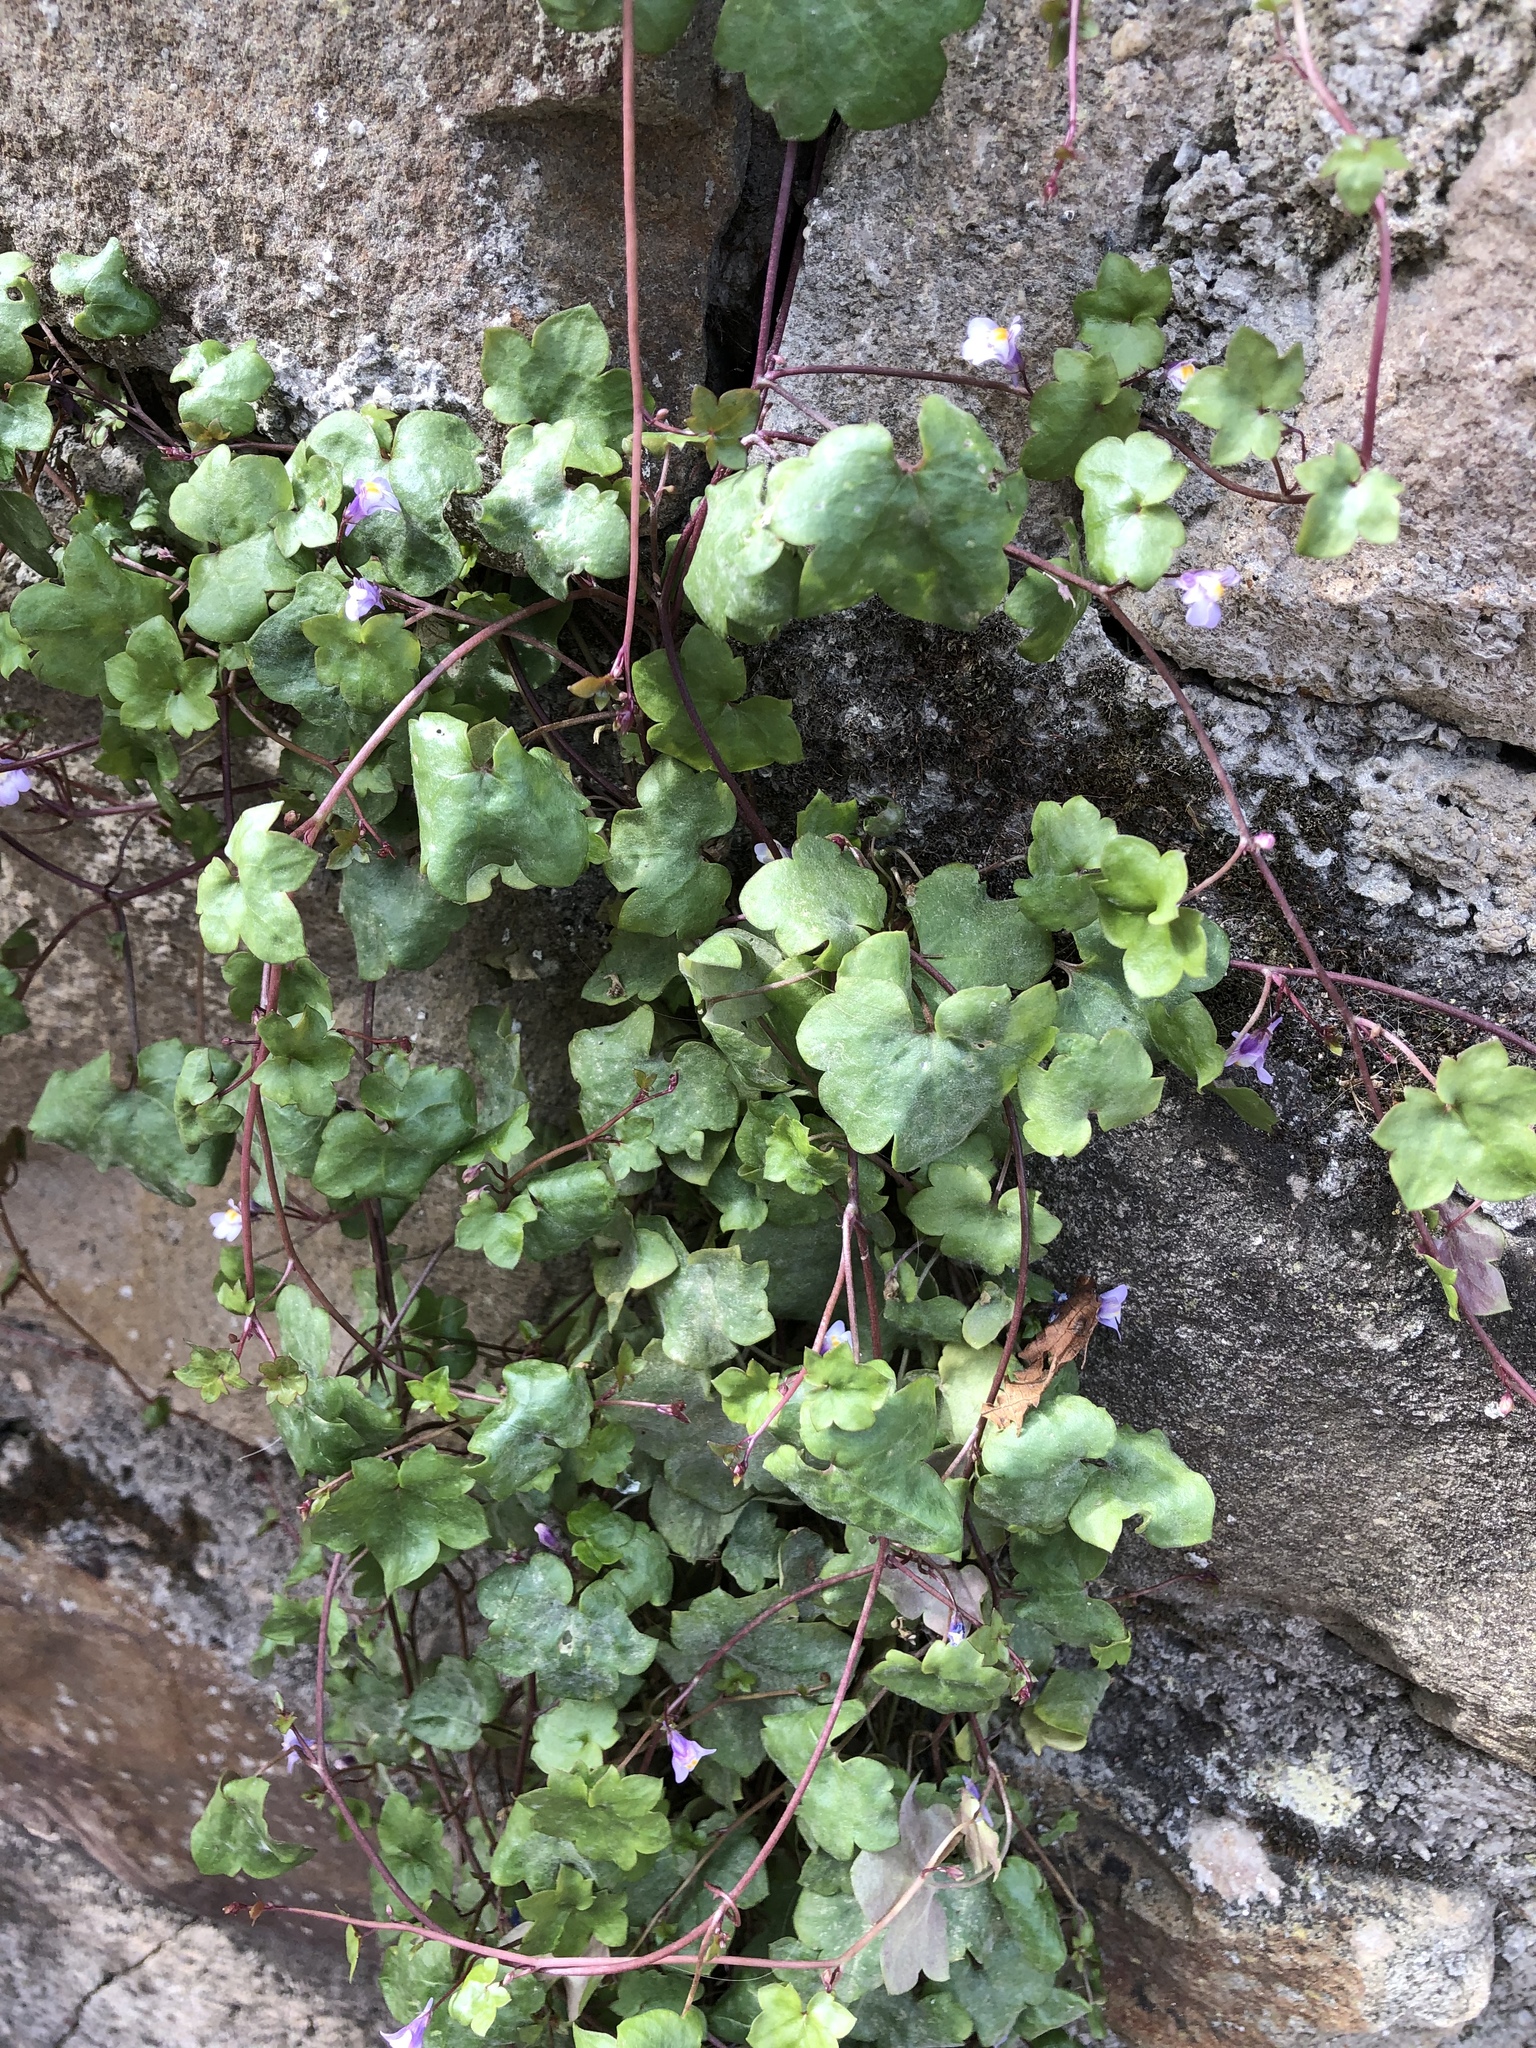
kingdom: Plantae
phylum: Tracheophyta
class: Magnoliopsida
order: Lamiales
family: Plantaginaceae
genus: Cymbalaria
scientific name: Cymbalaria muralis
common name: Ivy-leaved toadflax
